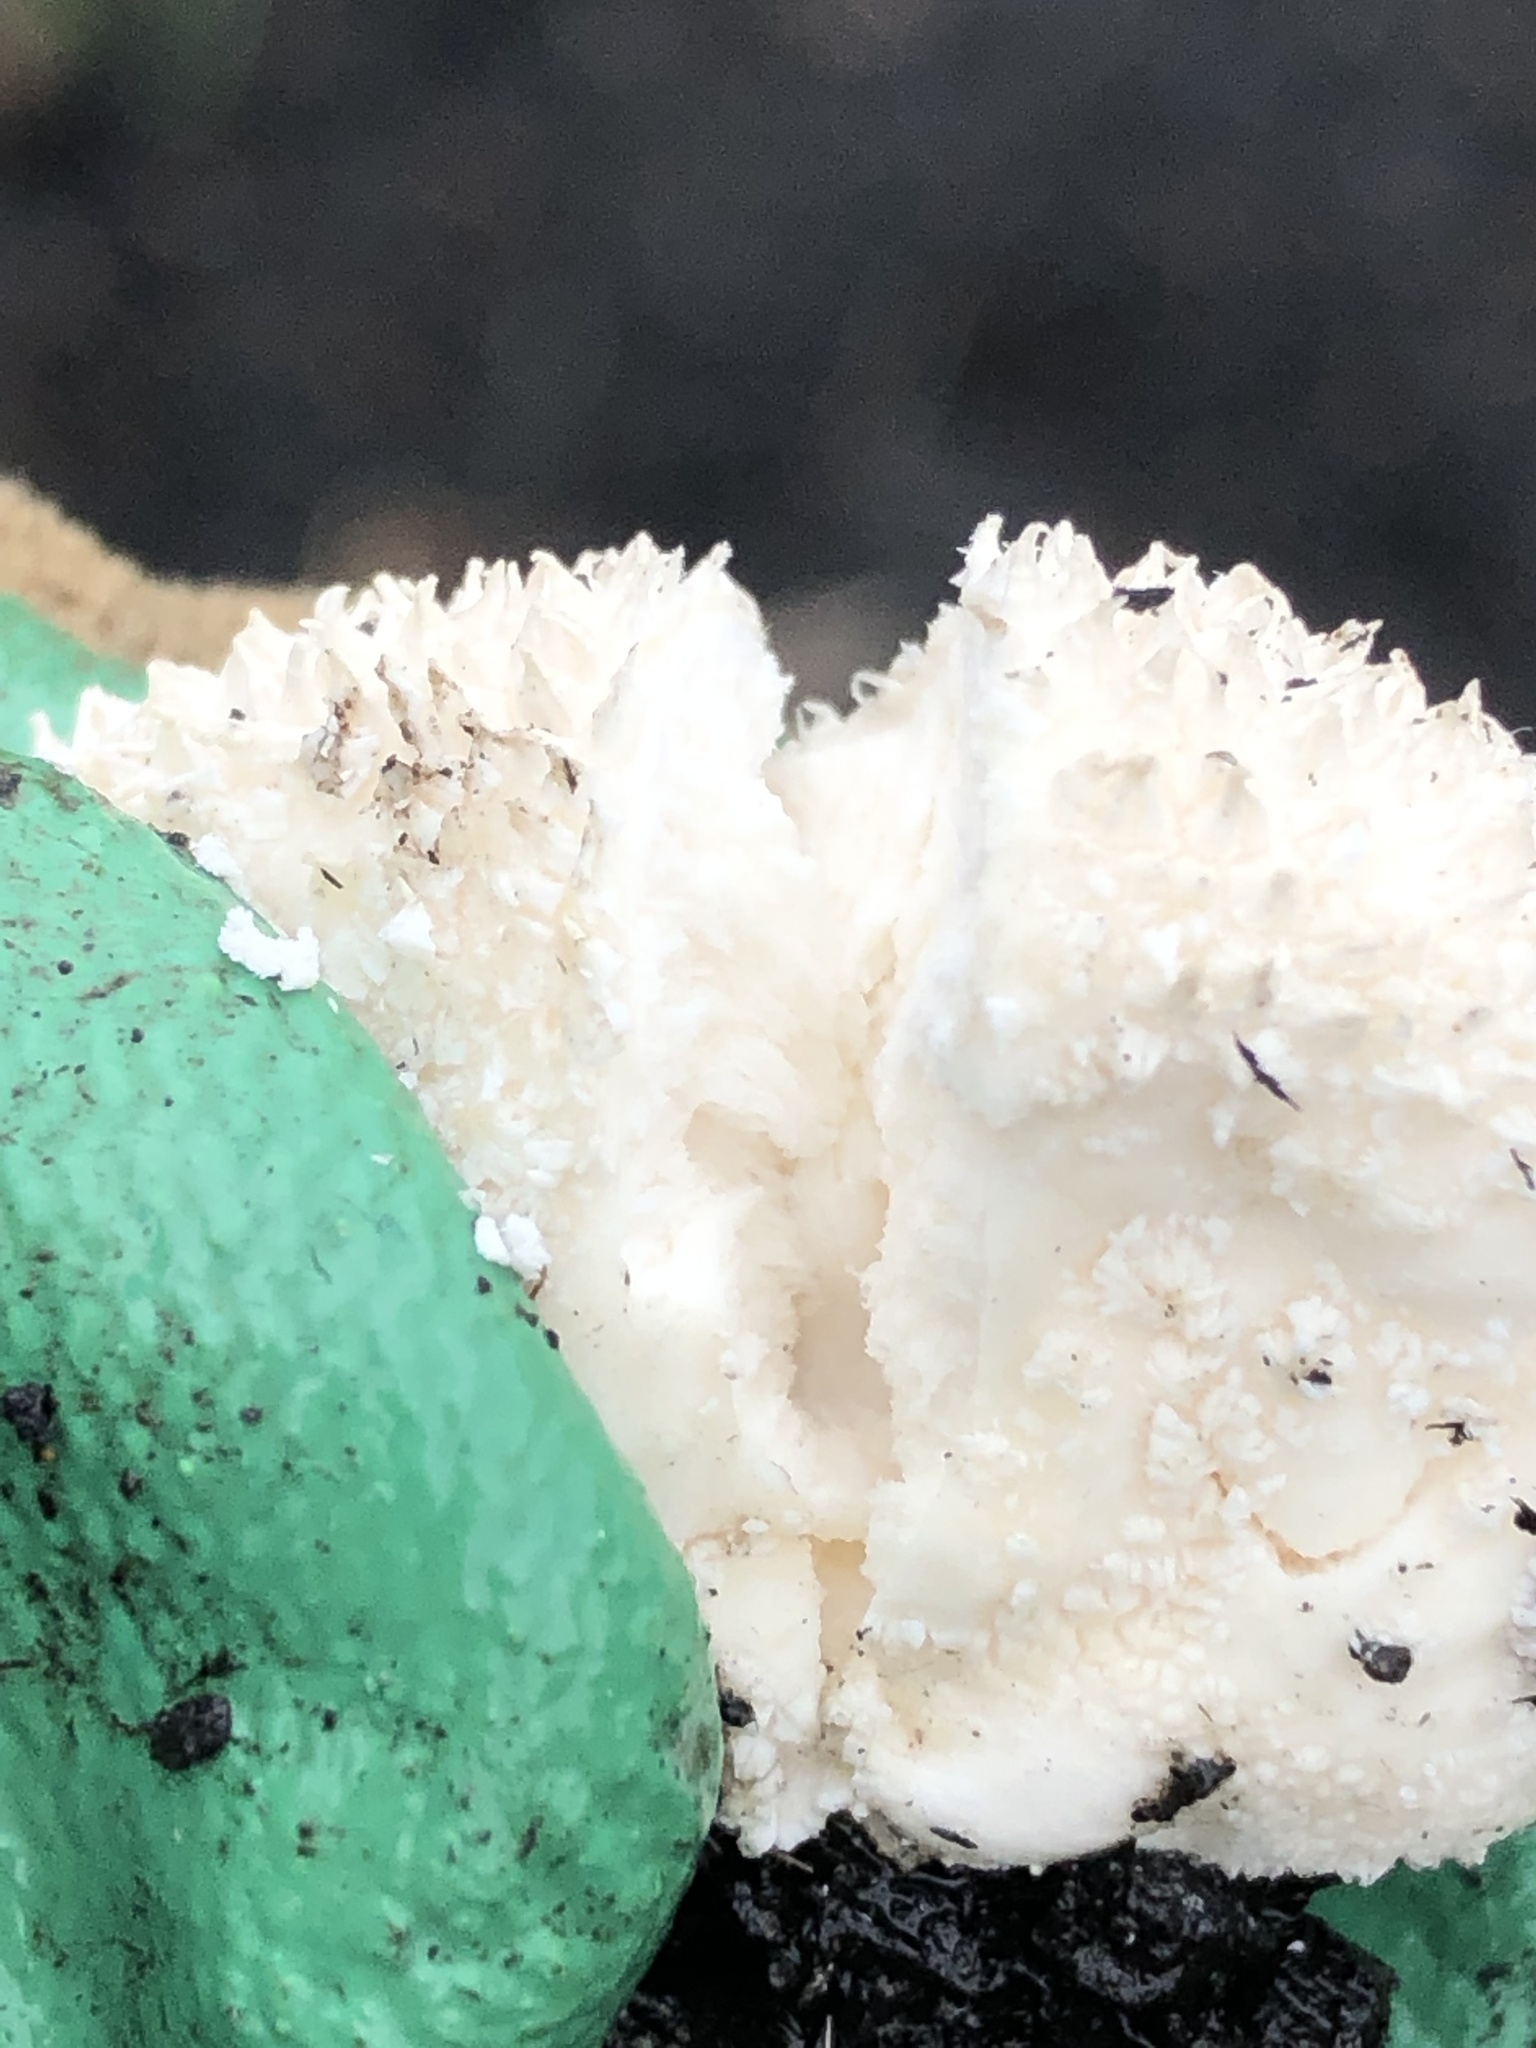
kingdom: Fungi
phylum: Basidiomycota
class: Agaricomycetes
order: Agaricales
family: Lycoperdaceae
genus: Lycoperdon
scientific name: Lycoperdon curtisii
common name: Curtis's puffball
